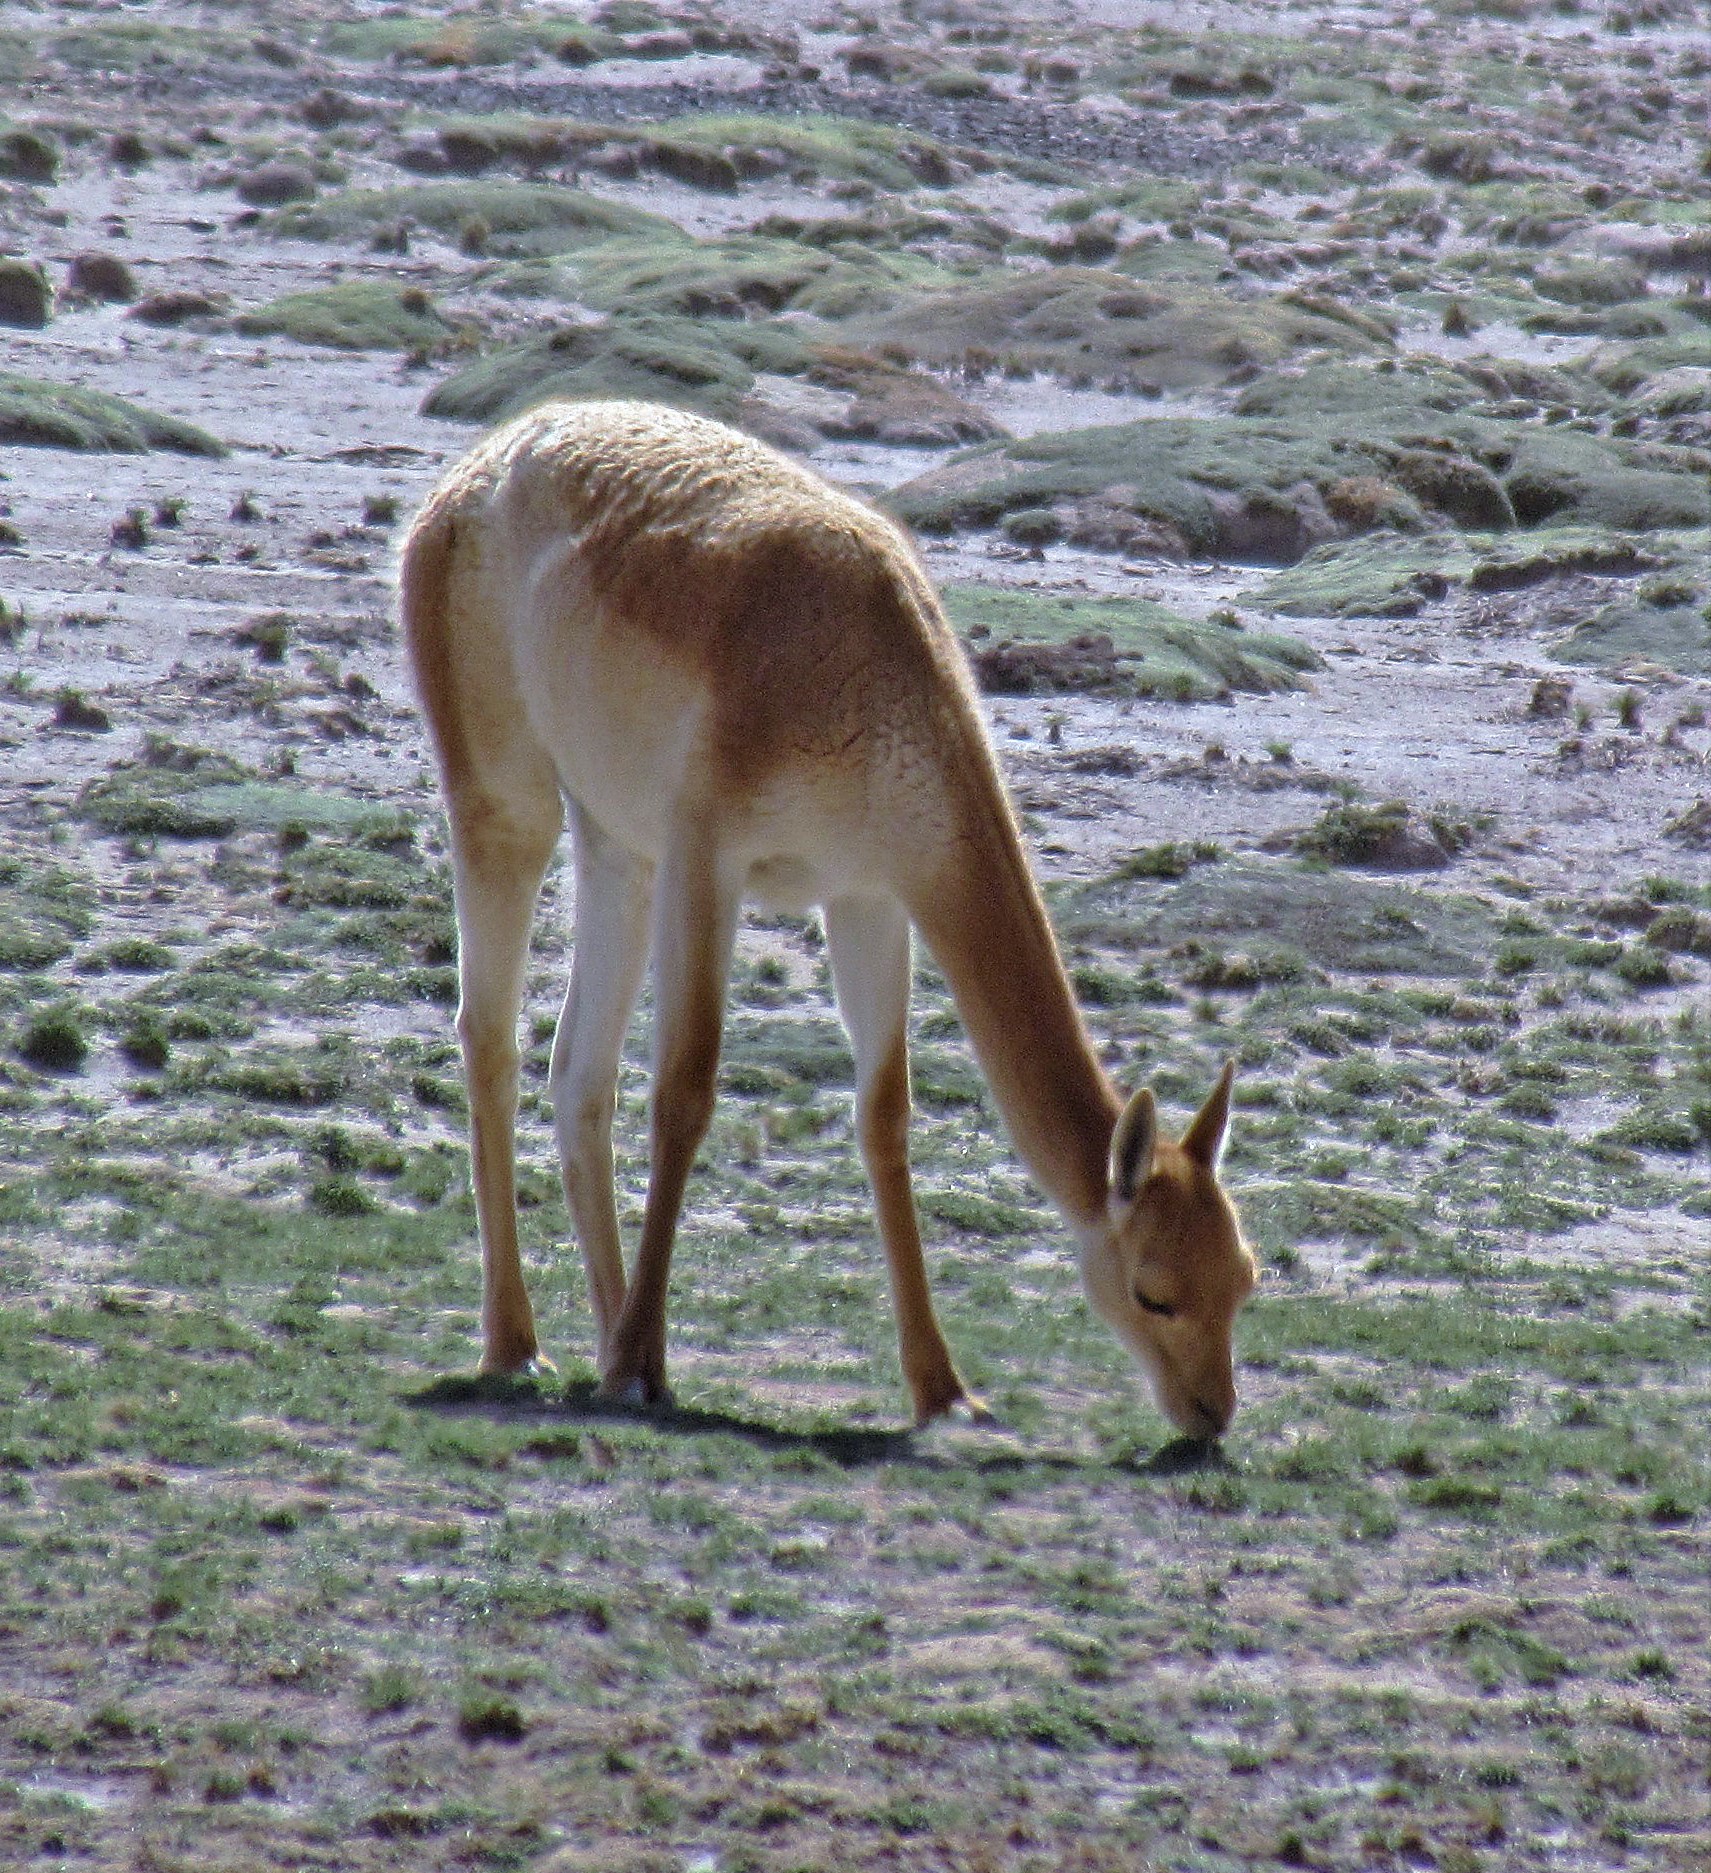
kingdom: Animalia
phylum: Chordata
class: Mammalia
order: Artiodactyla
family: Camelidae
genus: Vicugna
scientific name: Vicugna vicugna
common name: Vicugna
